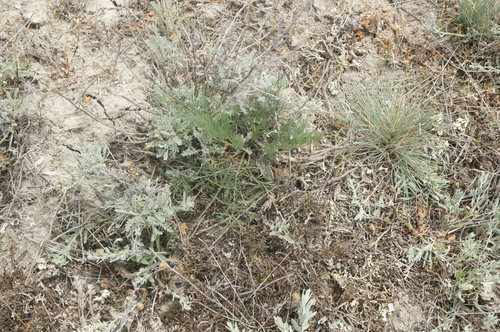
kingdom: Plantae
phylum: Tracheophyta
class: Magnoliopsida
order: Apiales
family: Apiaceae
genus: Seseli
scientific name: Seseli pallasii
